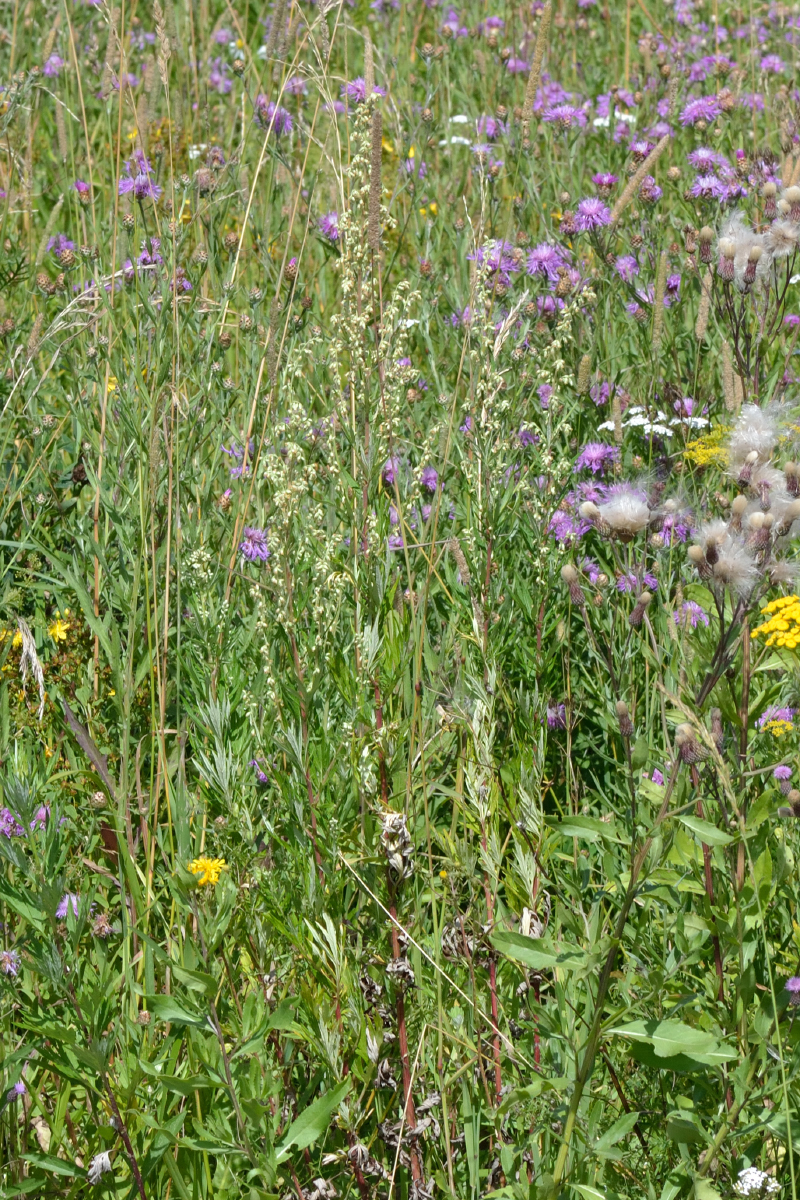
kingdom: Plantae
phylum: Tracheophyta
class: Magnoliopsida
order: Asterales
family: Asteraceae
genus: Artemisia
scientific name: Artemisia vulgaris
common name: Mugwort
